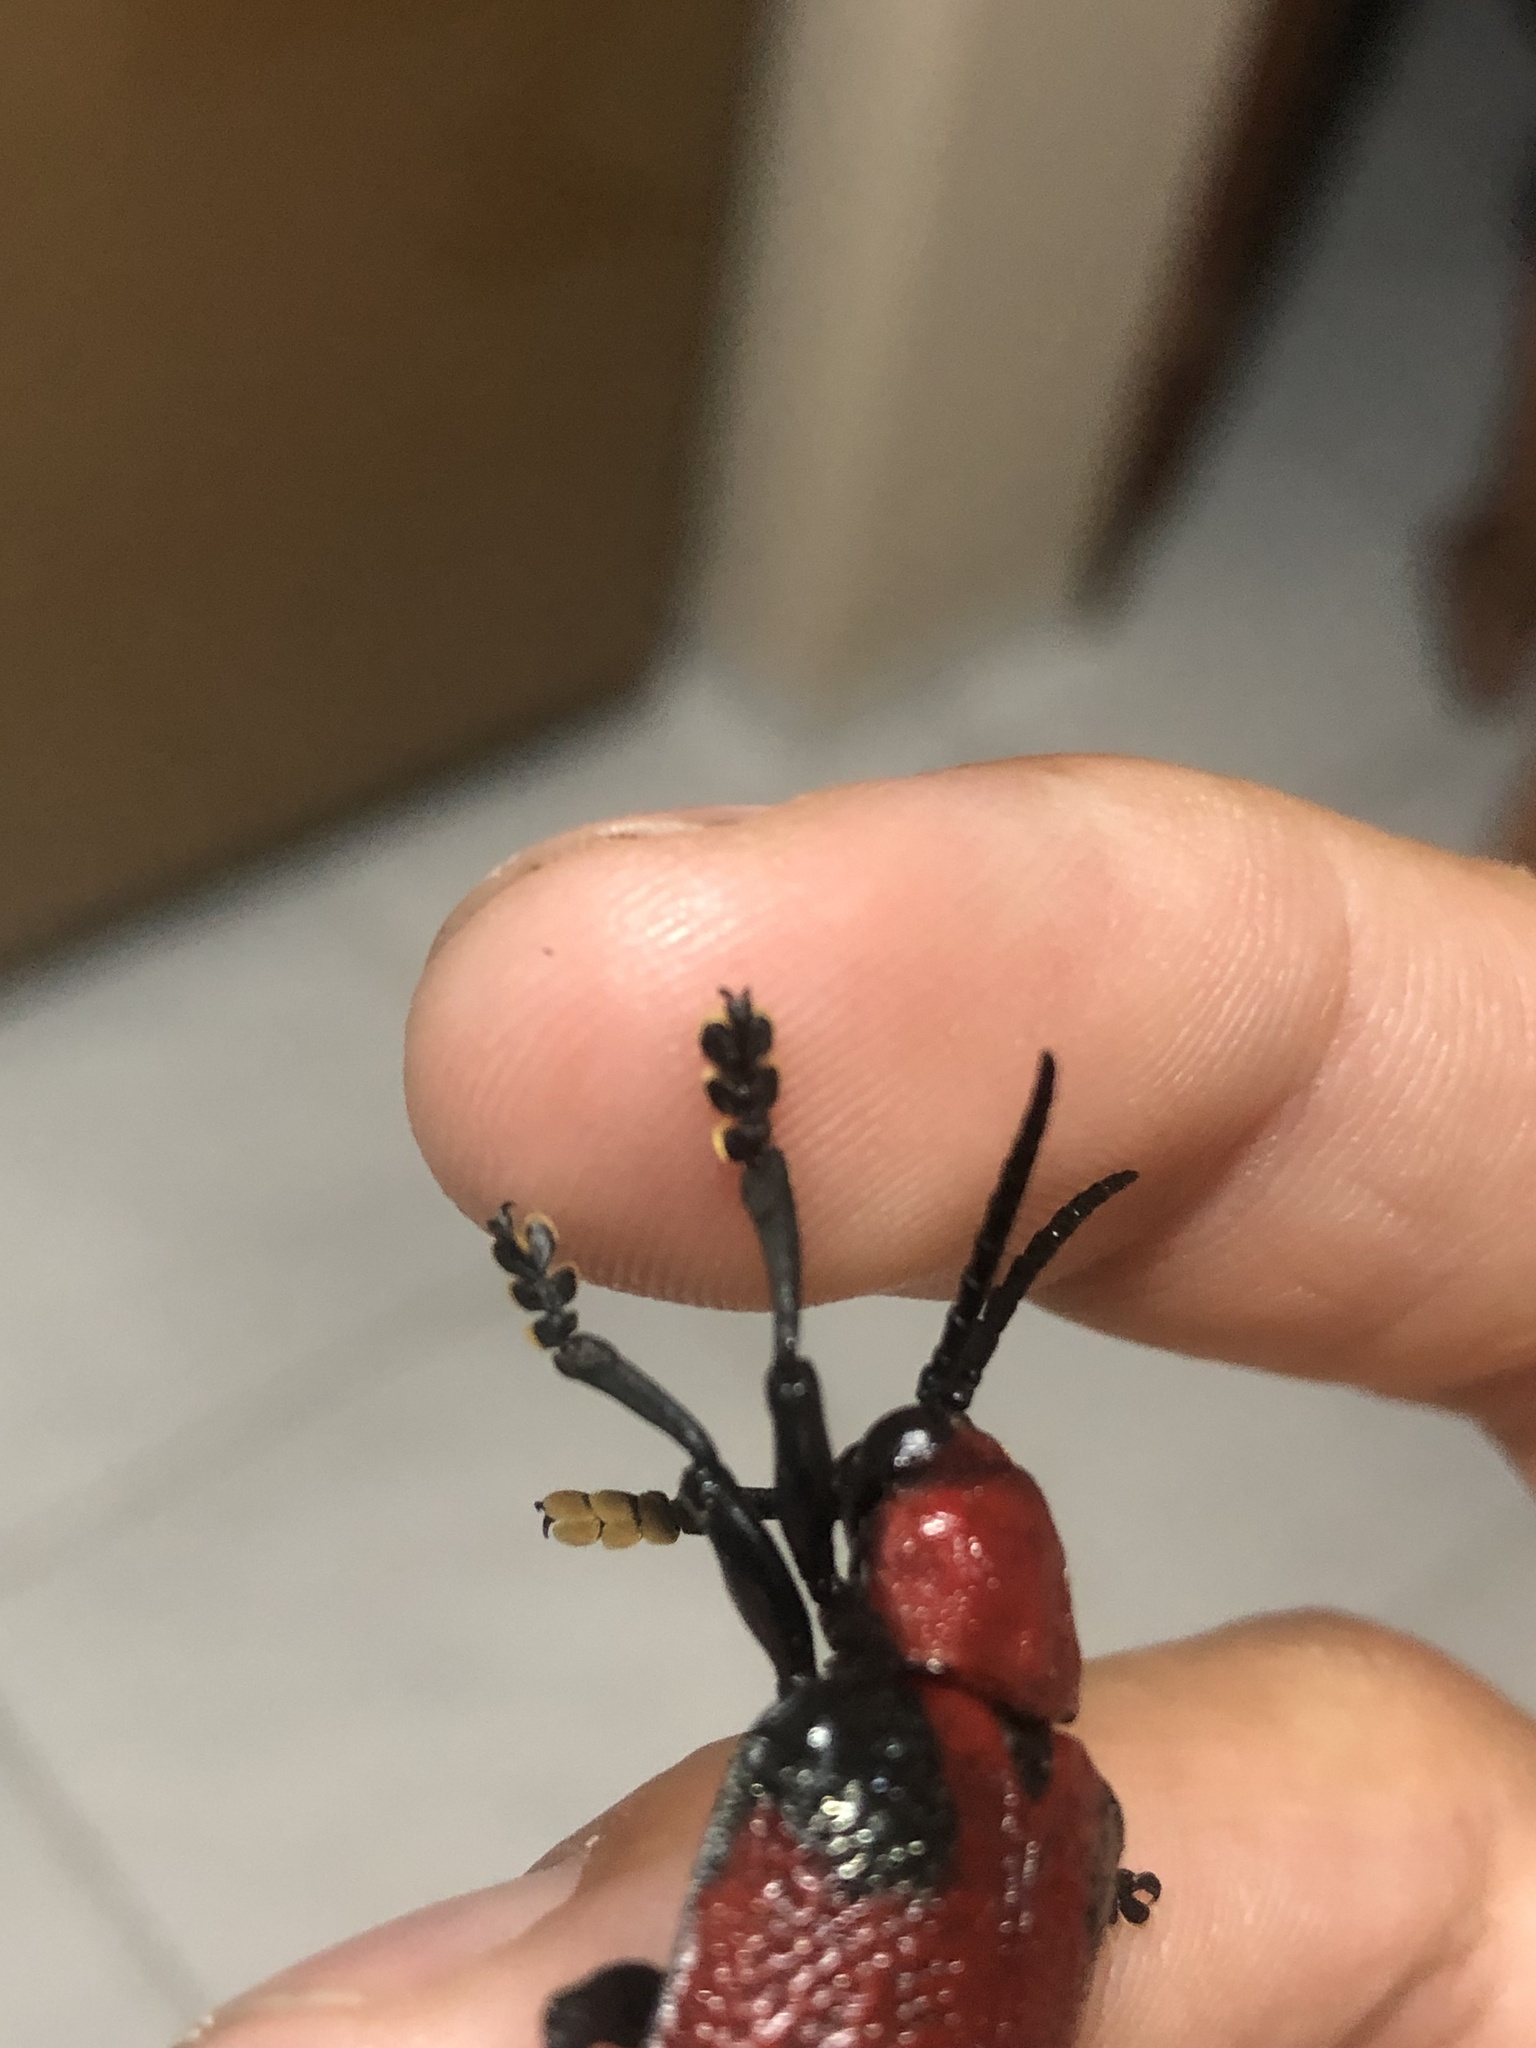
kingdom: Animalia
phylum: Arthropoda
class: Insecta
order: Coleoptera
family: Chrysomelidae
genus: Coraliomela
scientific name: Coraliomela brunnea
